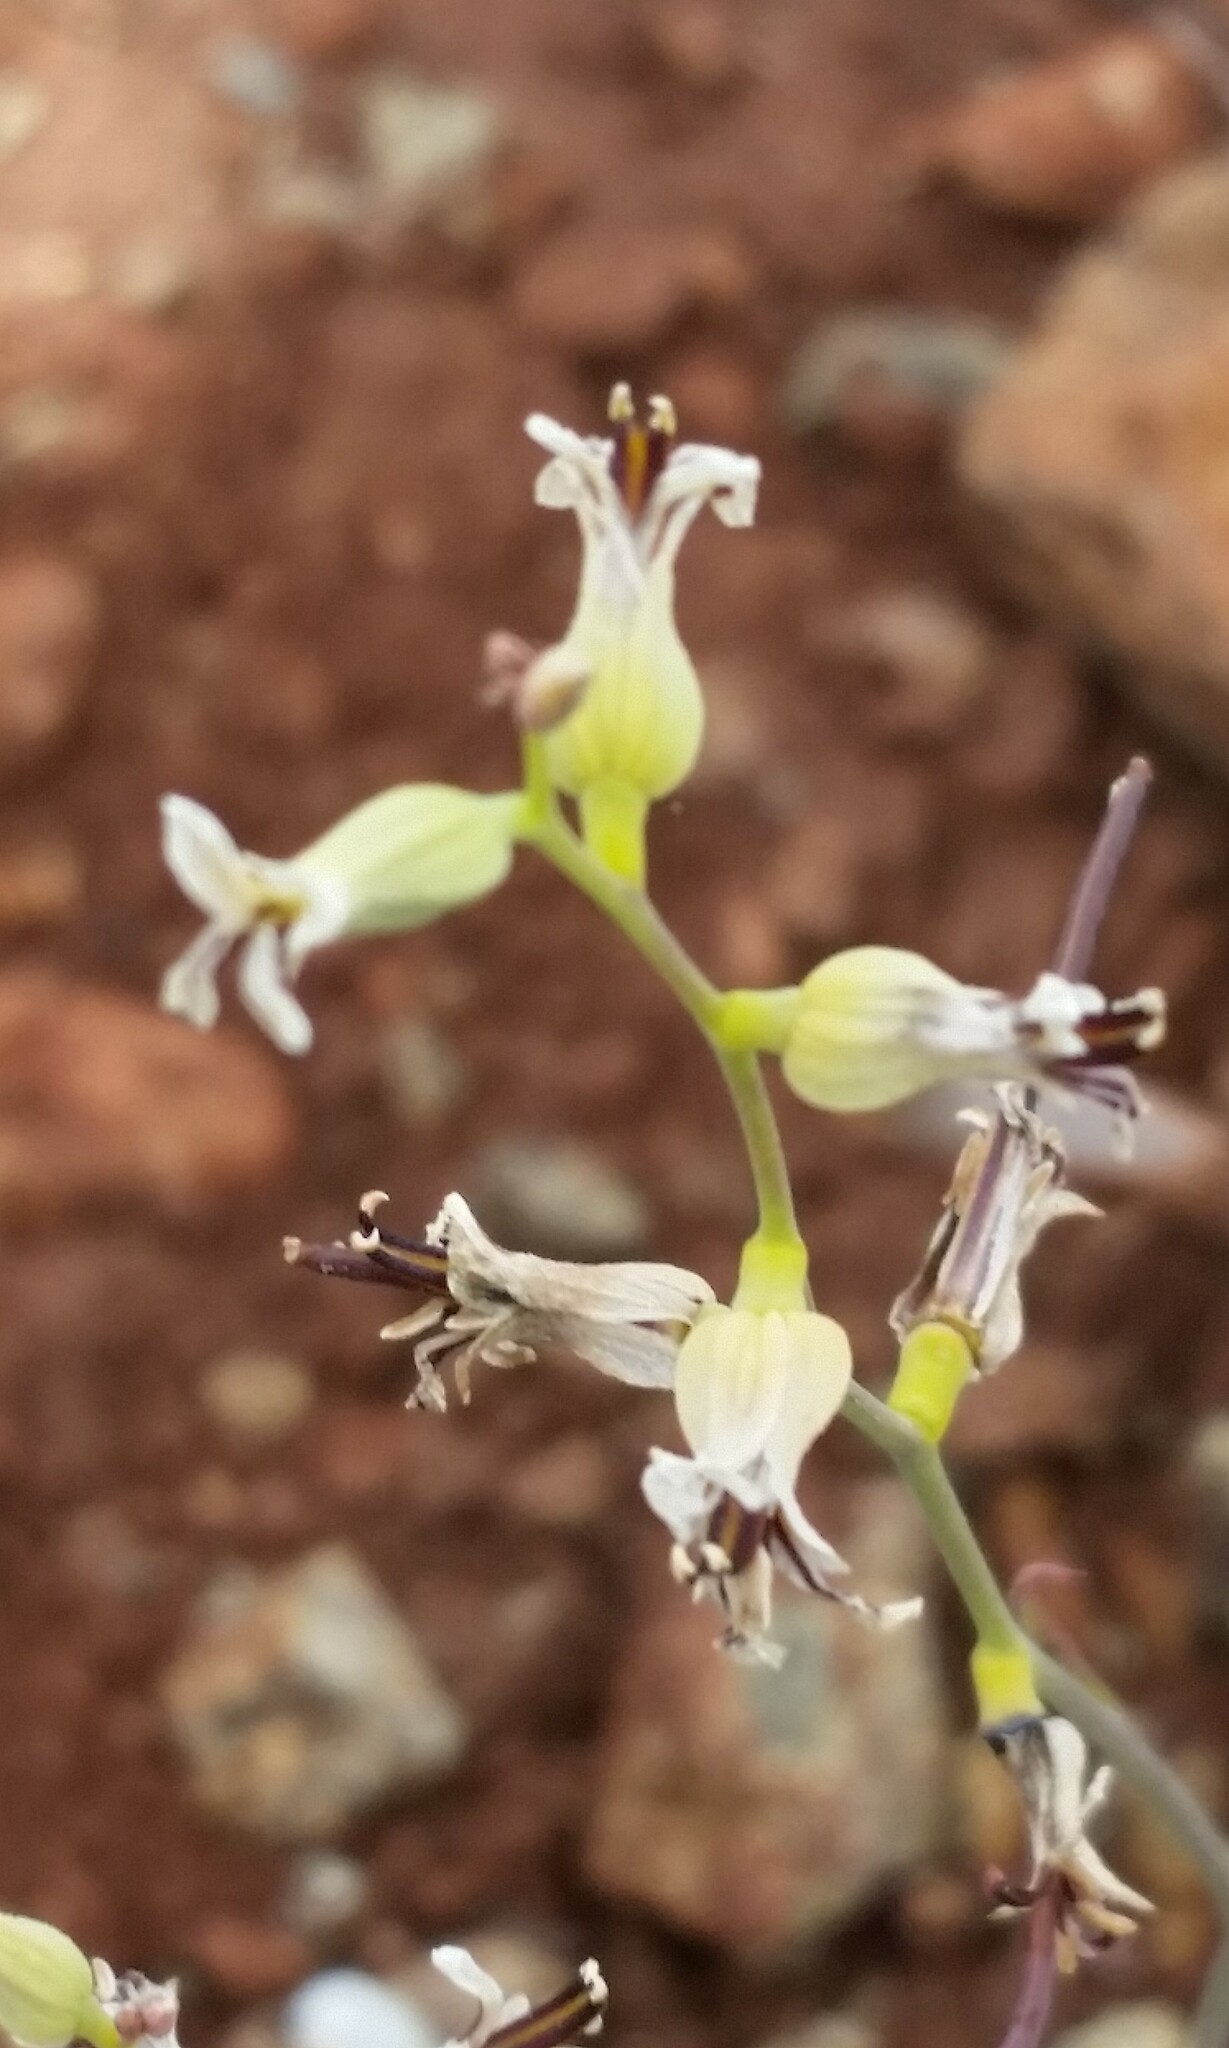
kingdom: Plantae
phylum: Tracheophyta
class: Magnoliopsida
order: Brassicales
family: Brassicaceae
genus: Streptanthus
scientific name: Streptanthus barbiger
